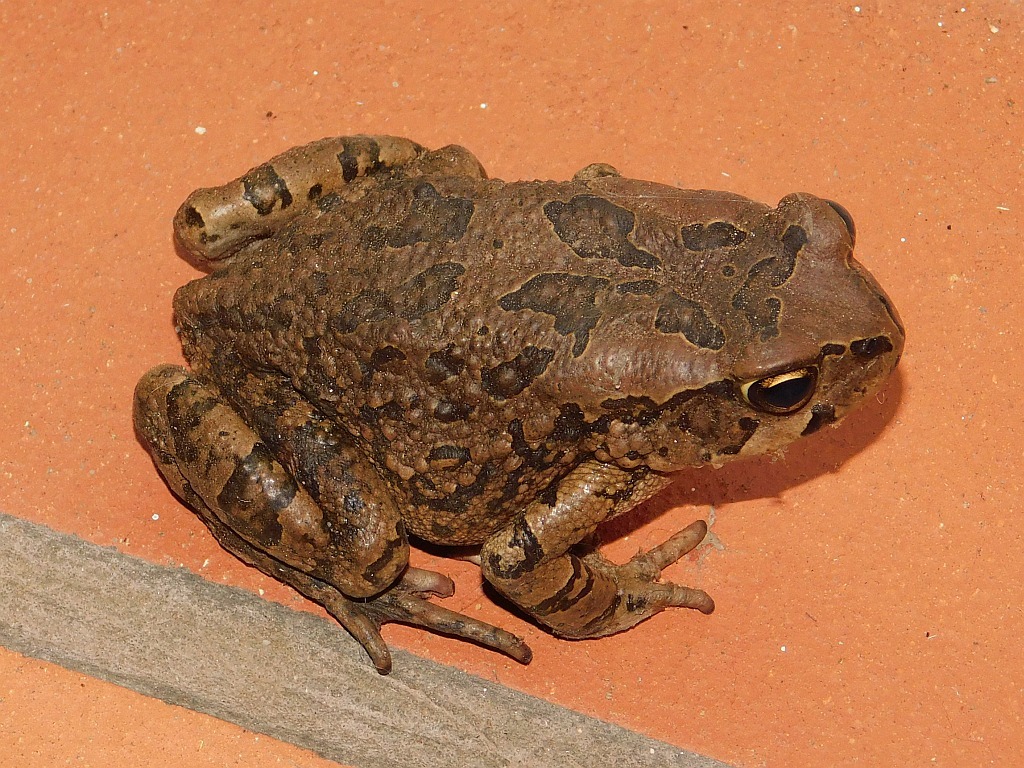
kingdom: Animalia
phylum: Chordata
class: Amphibia
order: Anura
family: Bufonidae
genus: Sclerophrys
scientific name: Sclerophrys capensis
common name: Ranger’s toad
